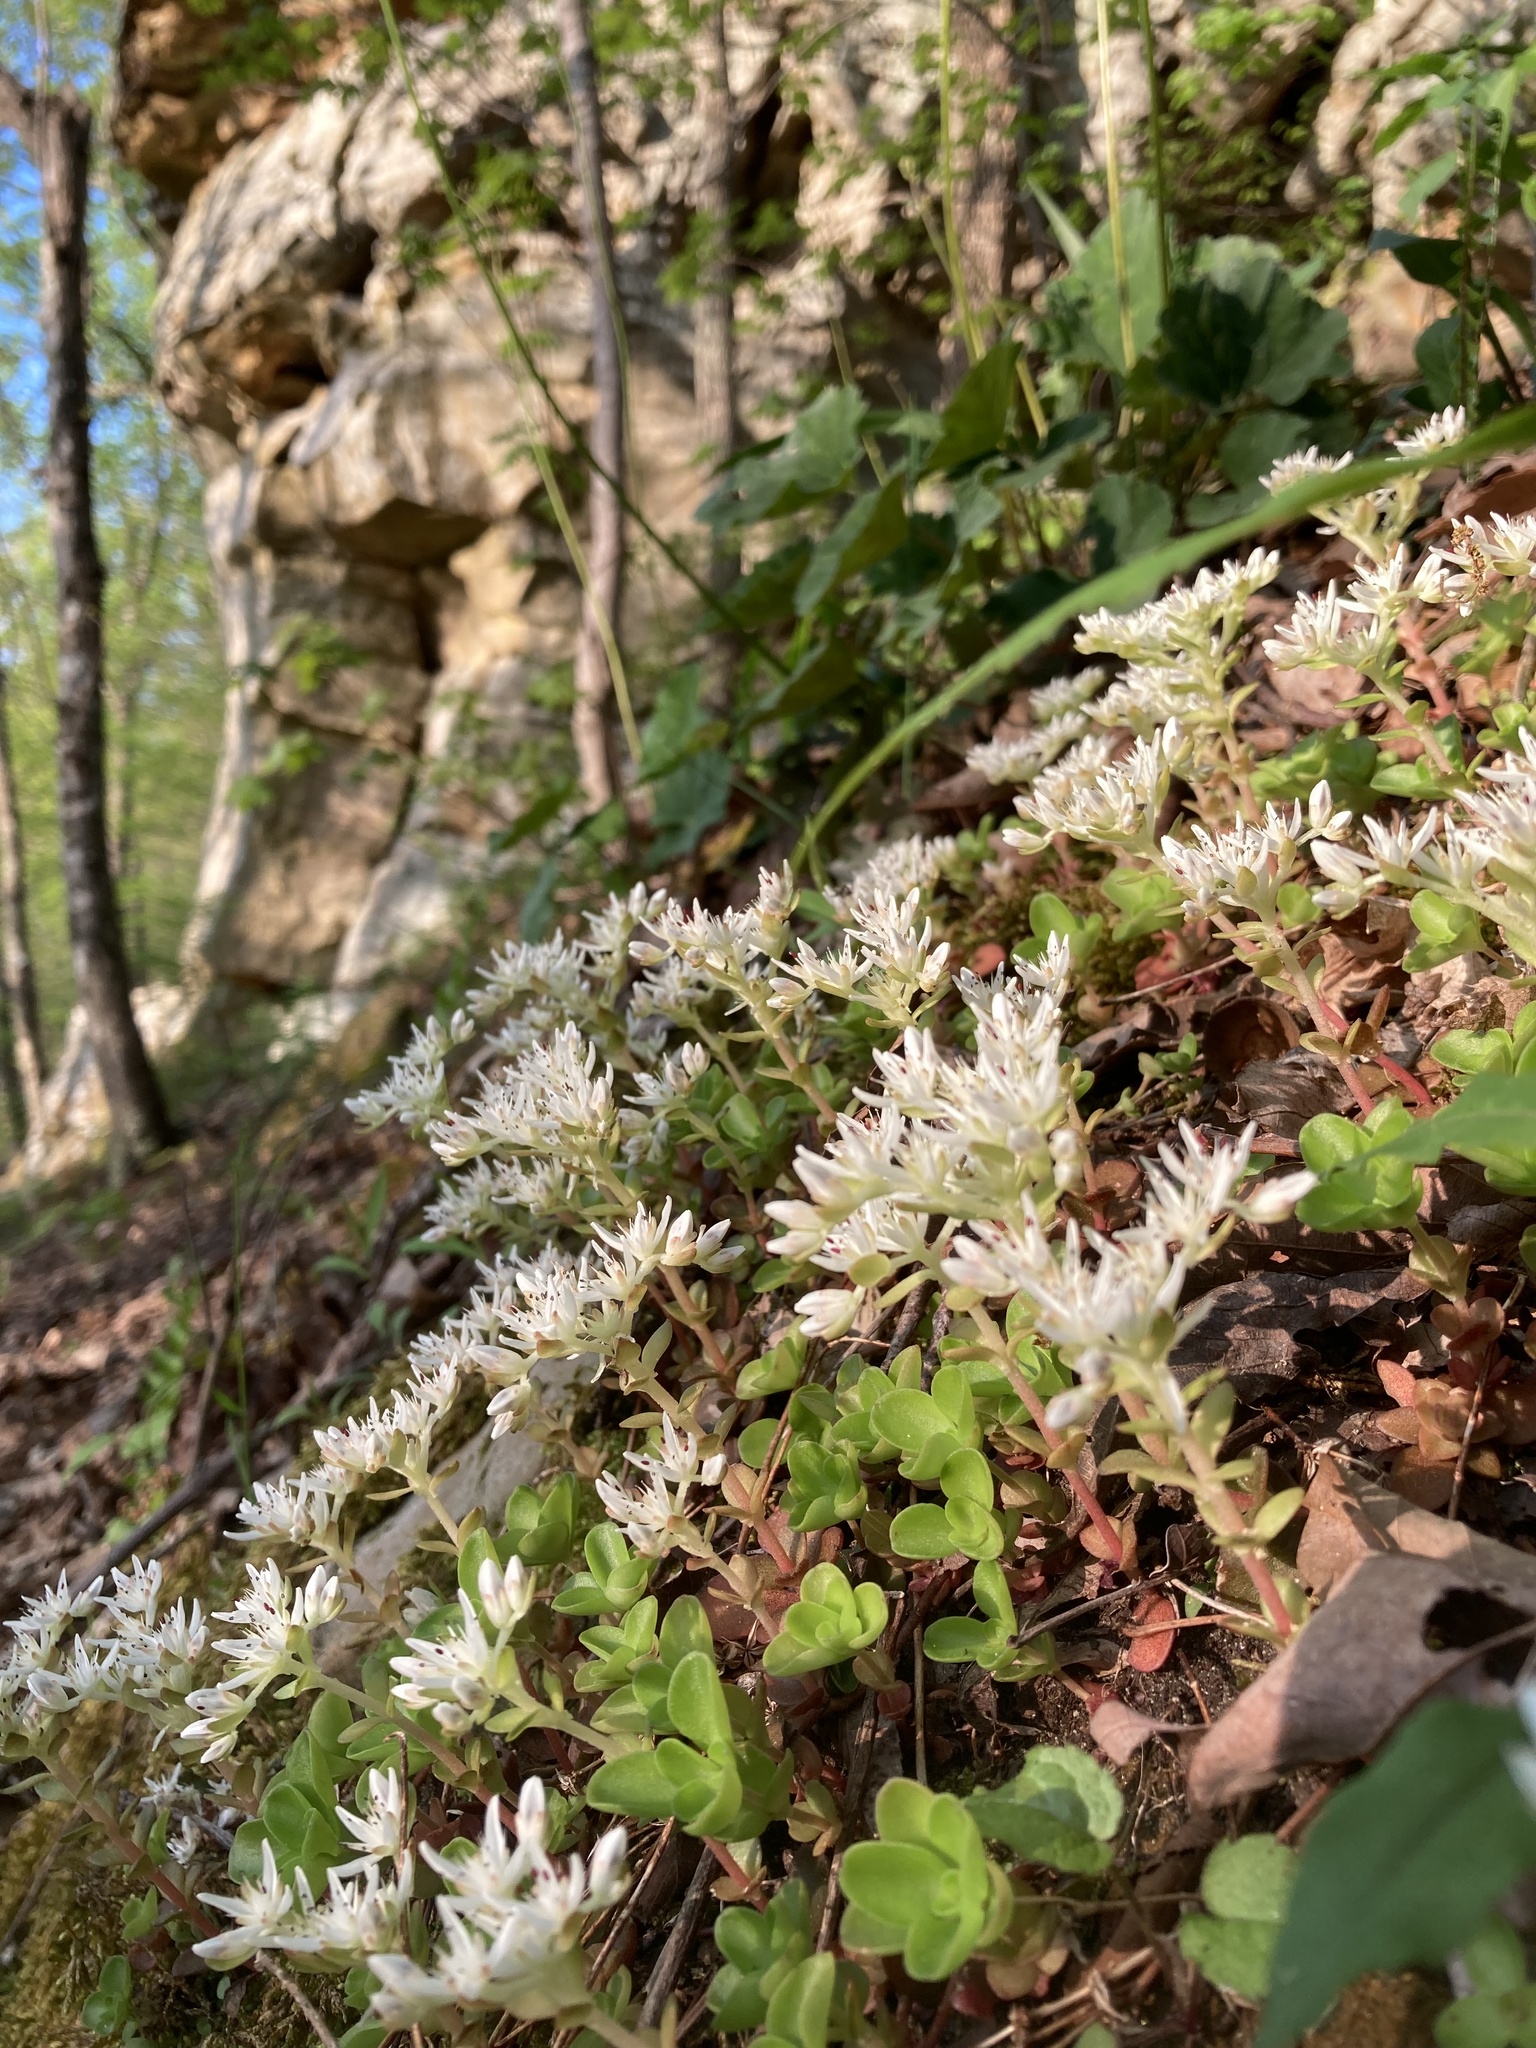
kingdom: Plantae
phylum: Tracheophyta
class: Magnoliopsida
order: Saxifragales
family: Crassulaceae
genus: Sedum
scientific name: Sedum ternatum
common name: Wild stonecrop
